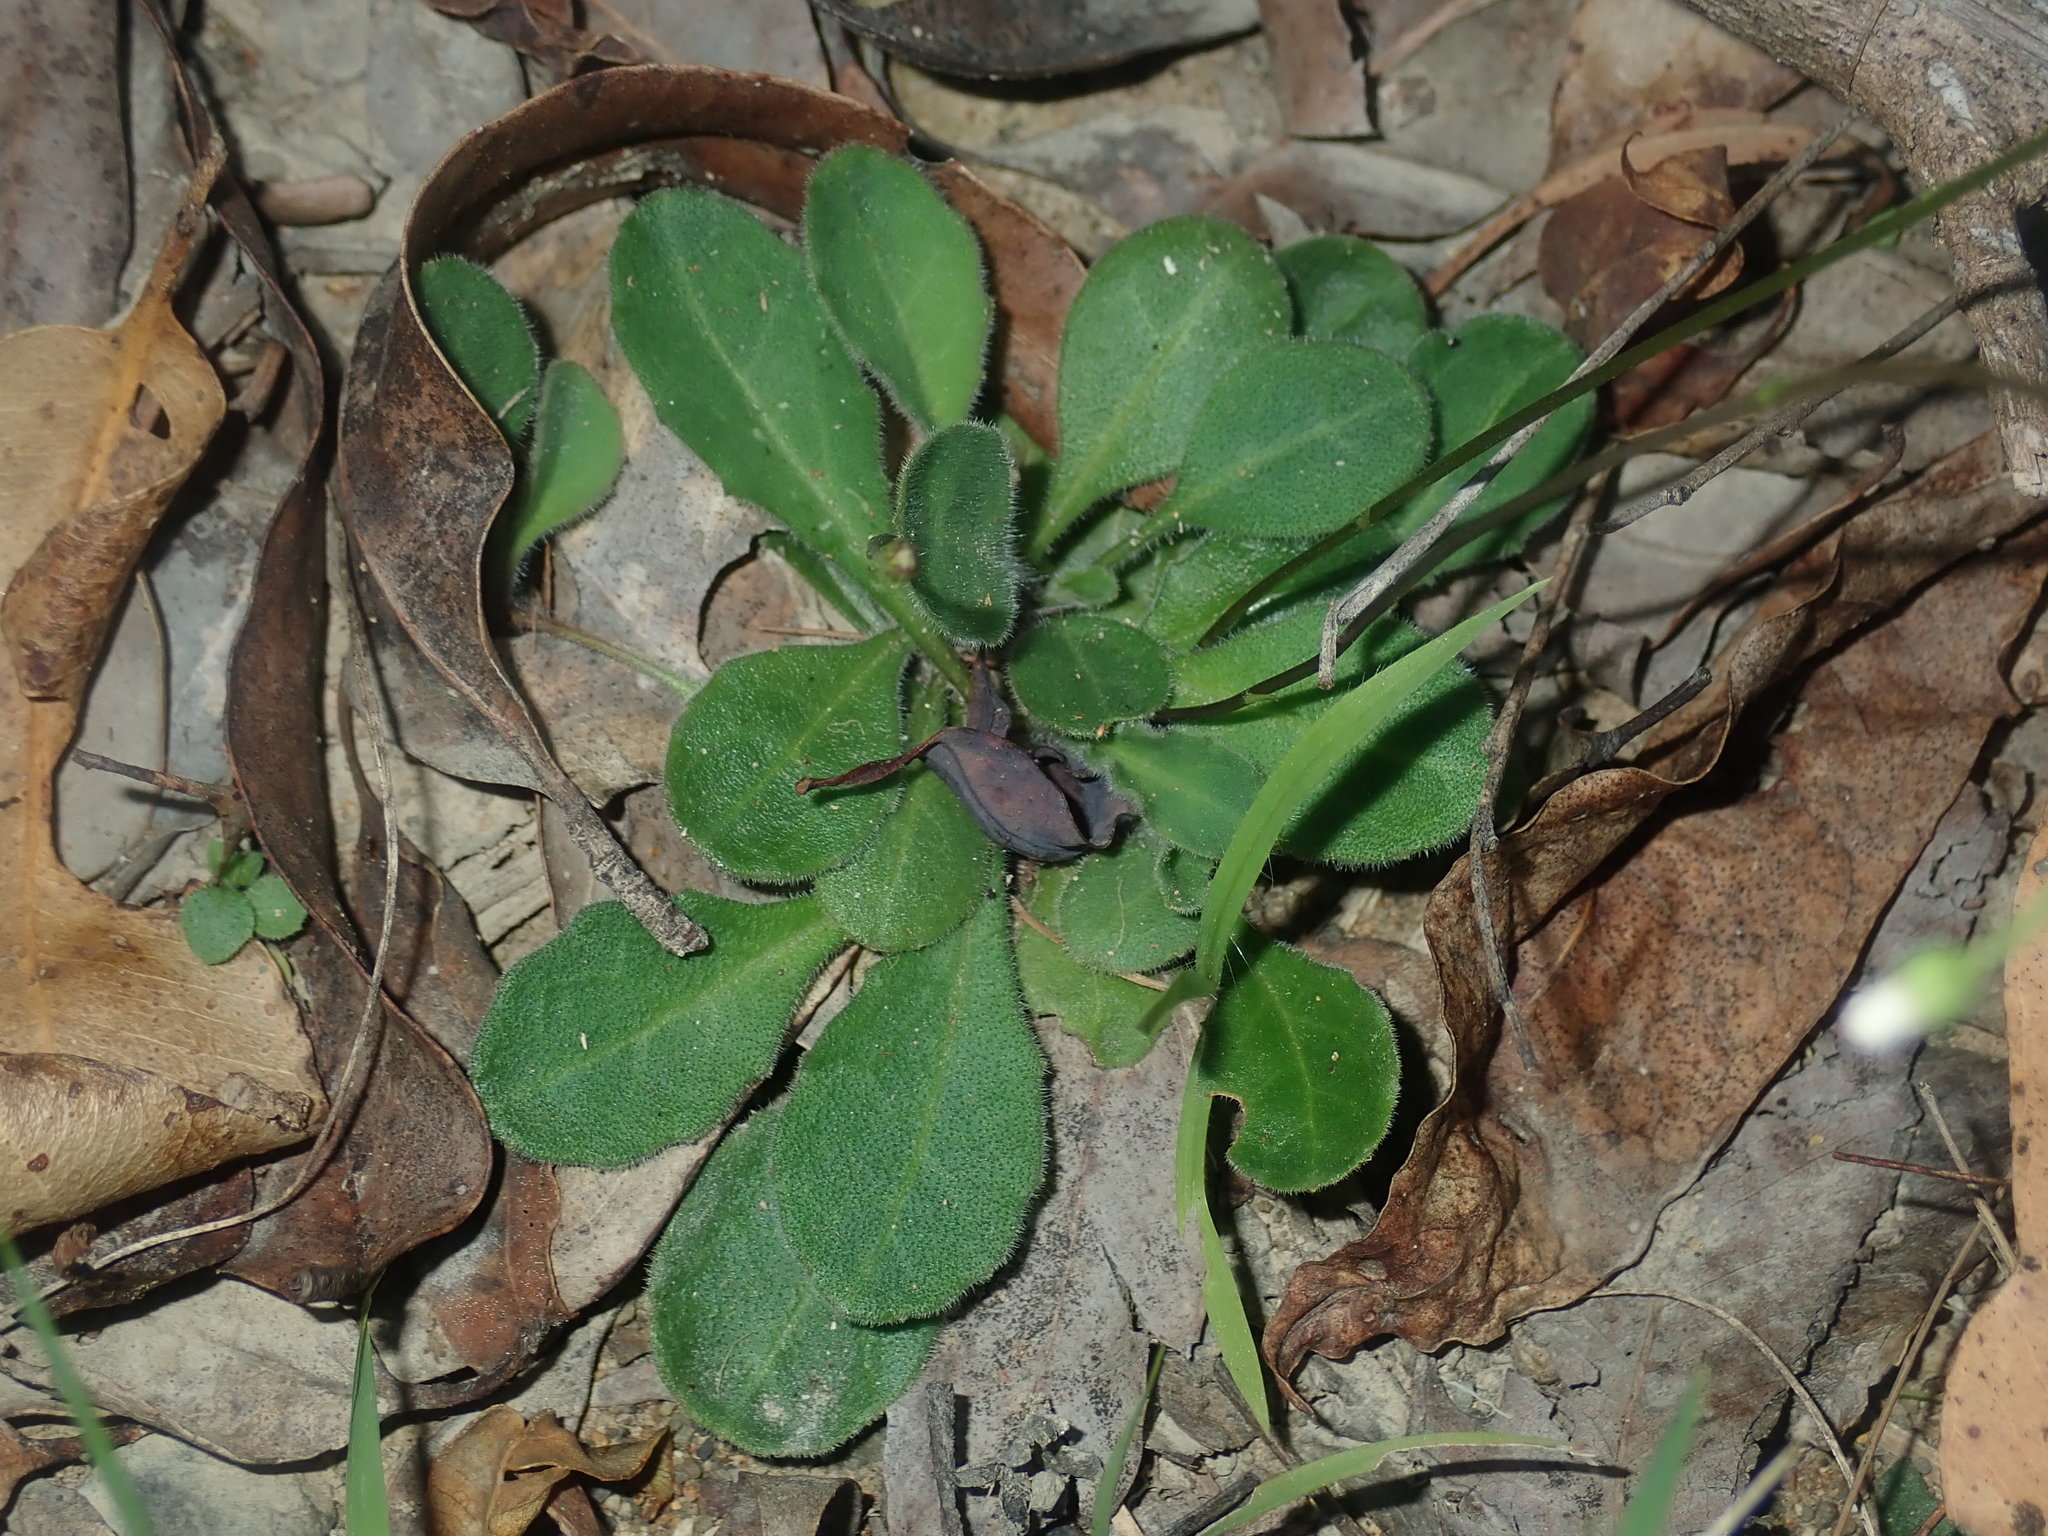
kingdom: Plantae
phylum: Tracheophyta
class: Magnoliopsida
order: Asterales
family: Asteraceae
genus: Lagenophora
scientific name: Lagenophora sublyrata ter
